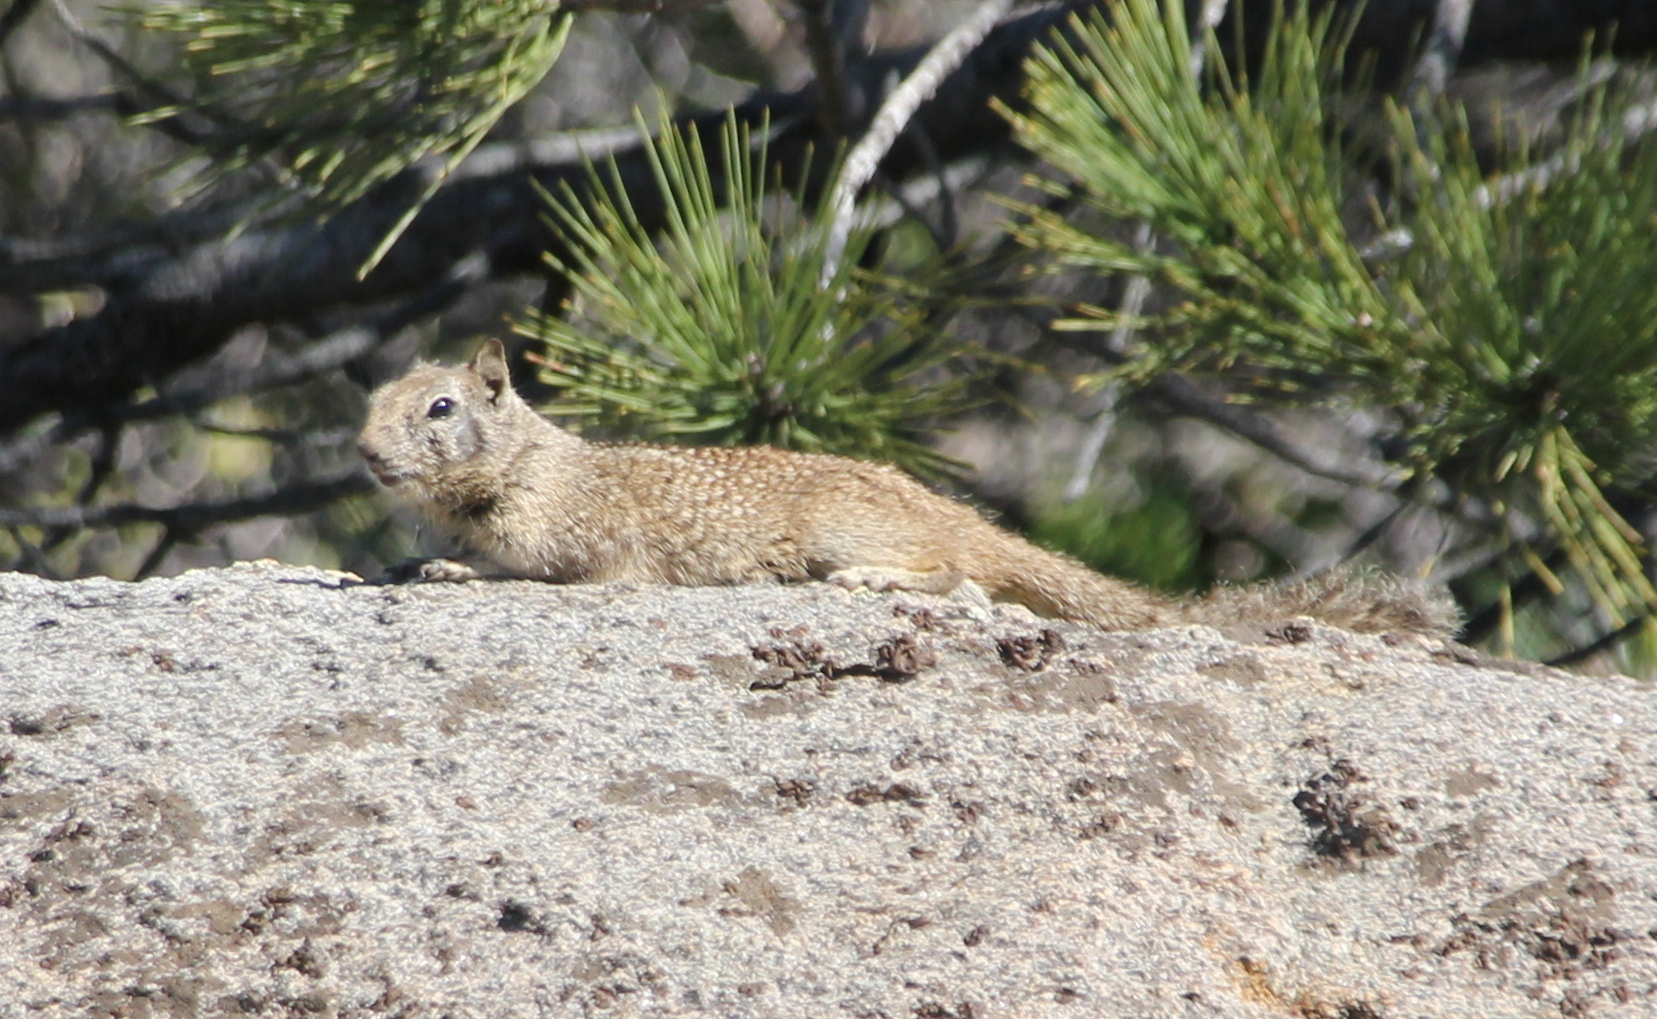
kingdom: Animalia
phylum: Chordata
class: Mammalia
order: Rodentia
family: Sciuridae
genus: Otospermophilus
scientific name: Otospermophilus beecheyi
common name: California ground squirrel
